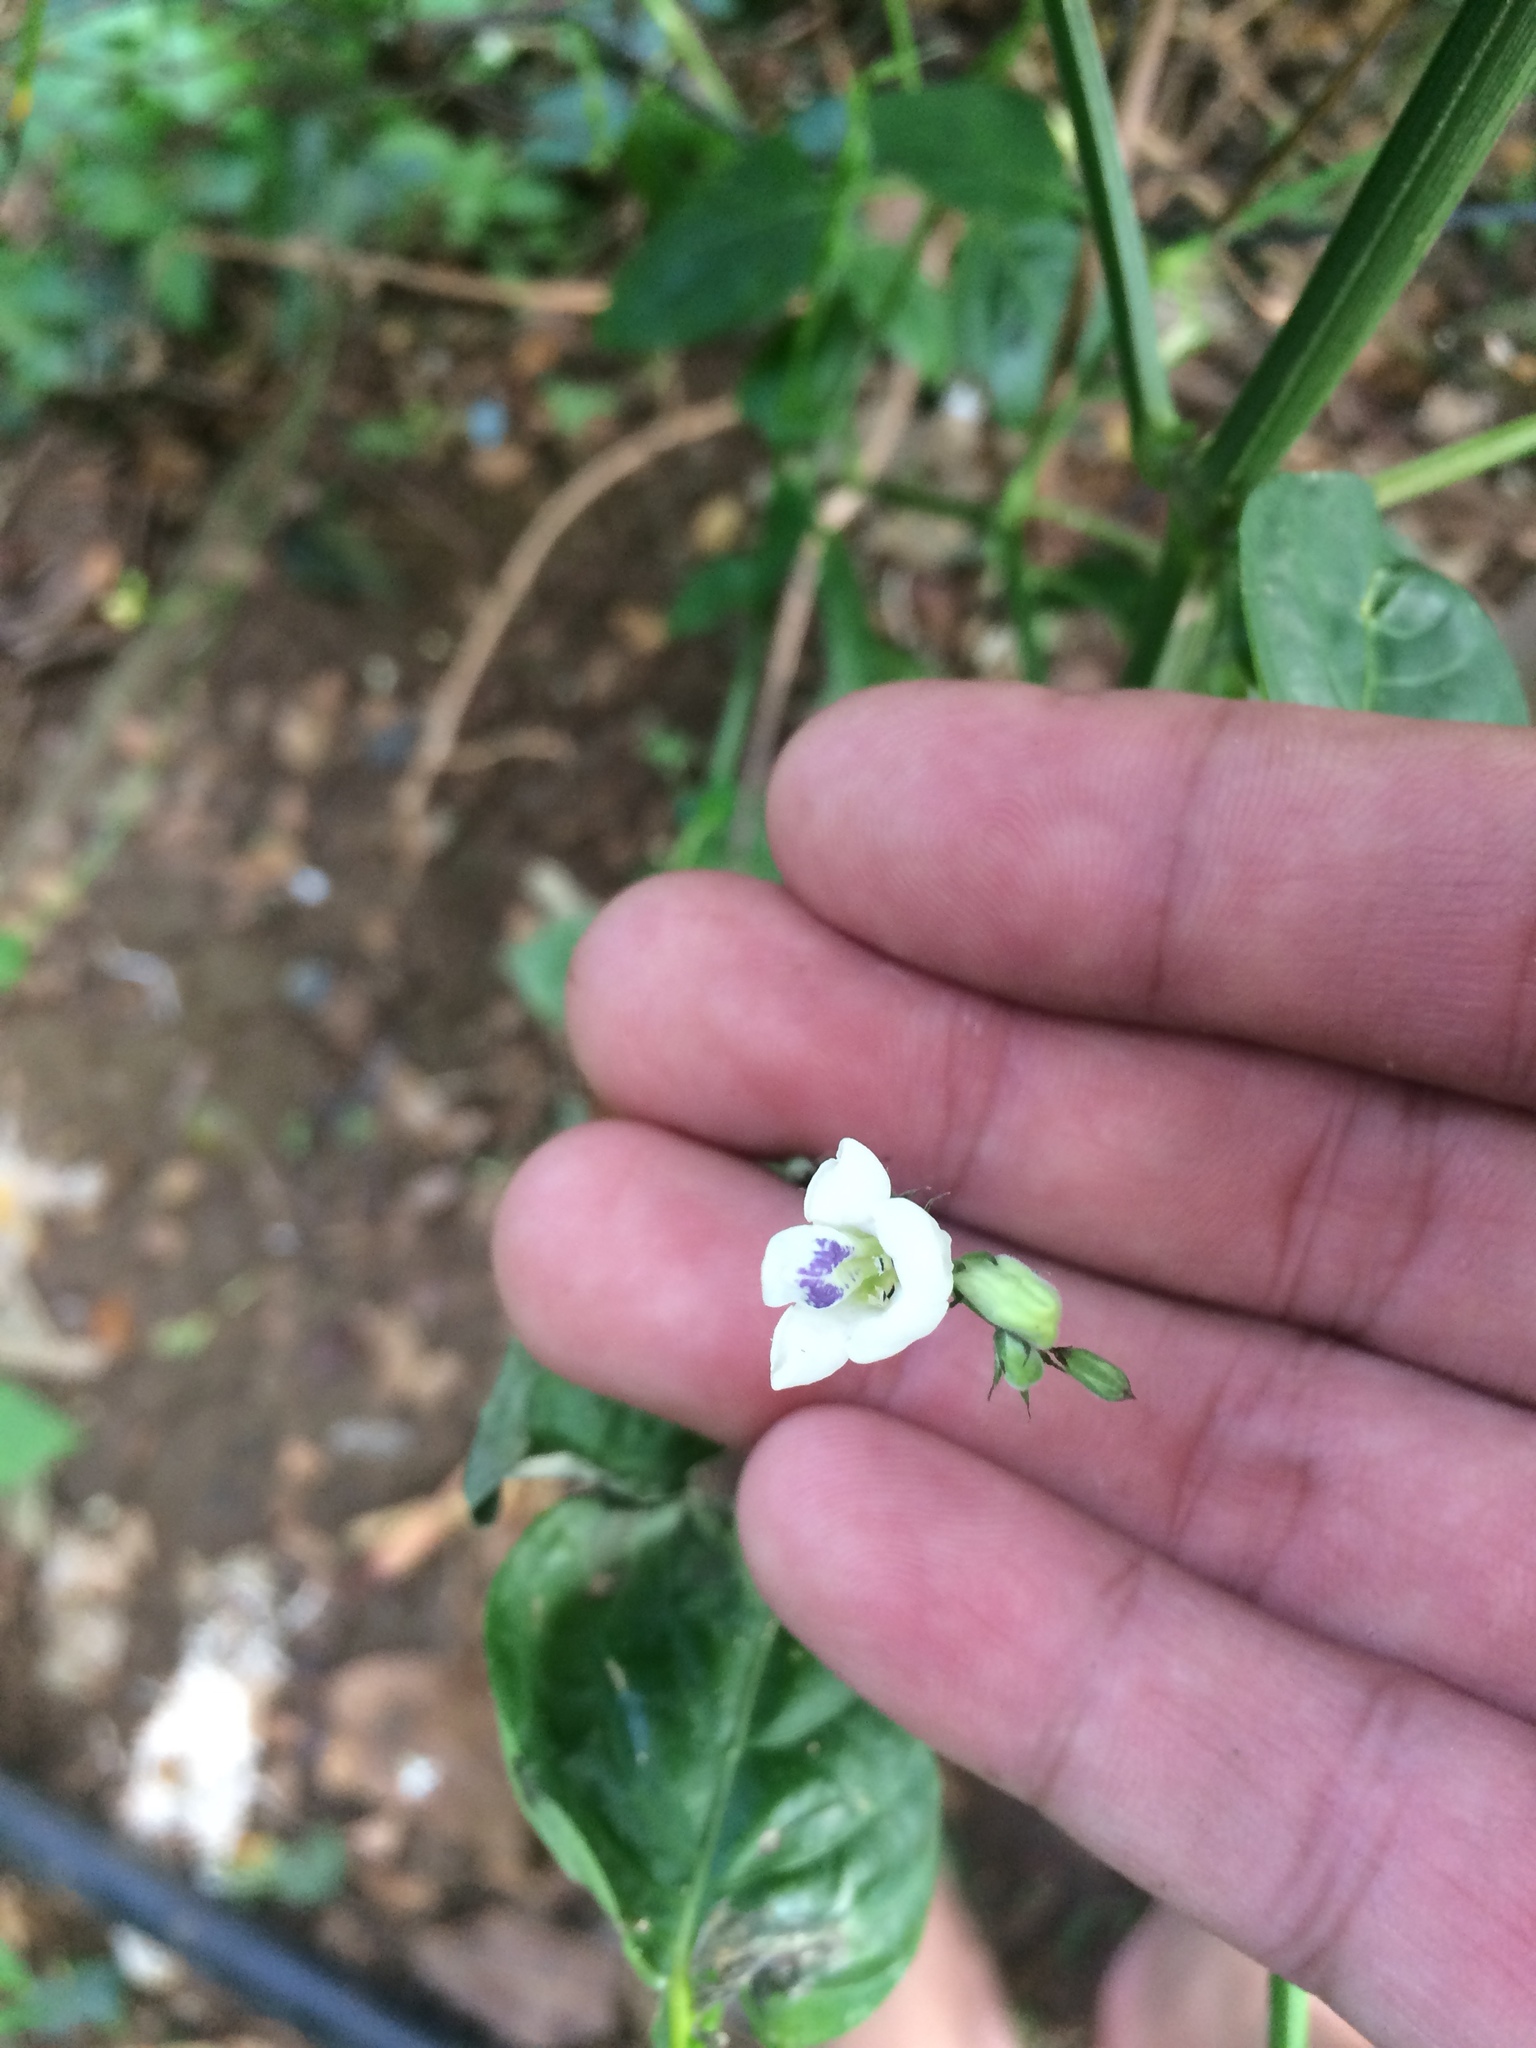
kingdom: Plantae
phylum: Tracheophyta
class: Magnoliopsida
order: Lamiales
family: Acanthaceae
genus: Asystasia
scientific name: Asystasia intrusa
